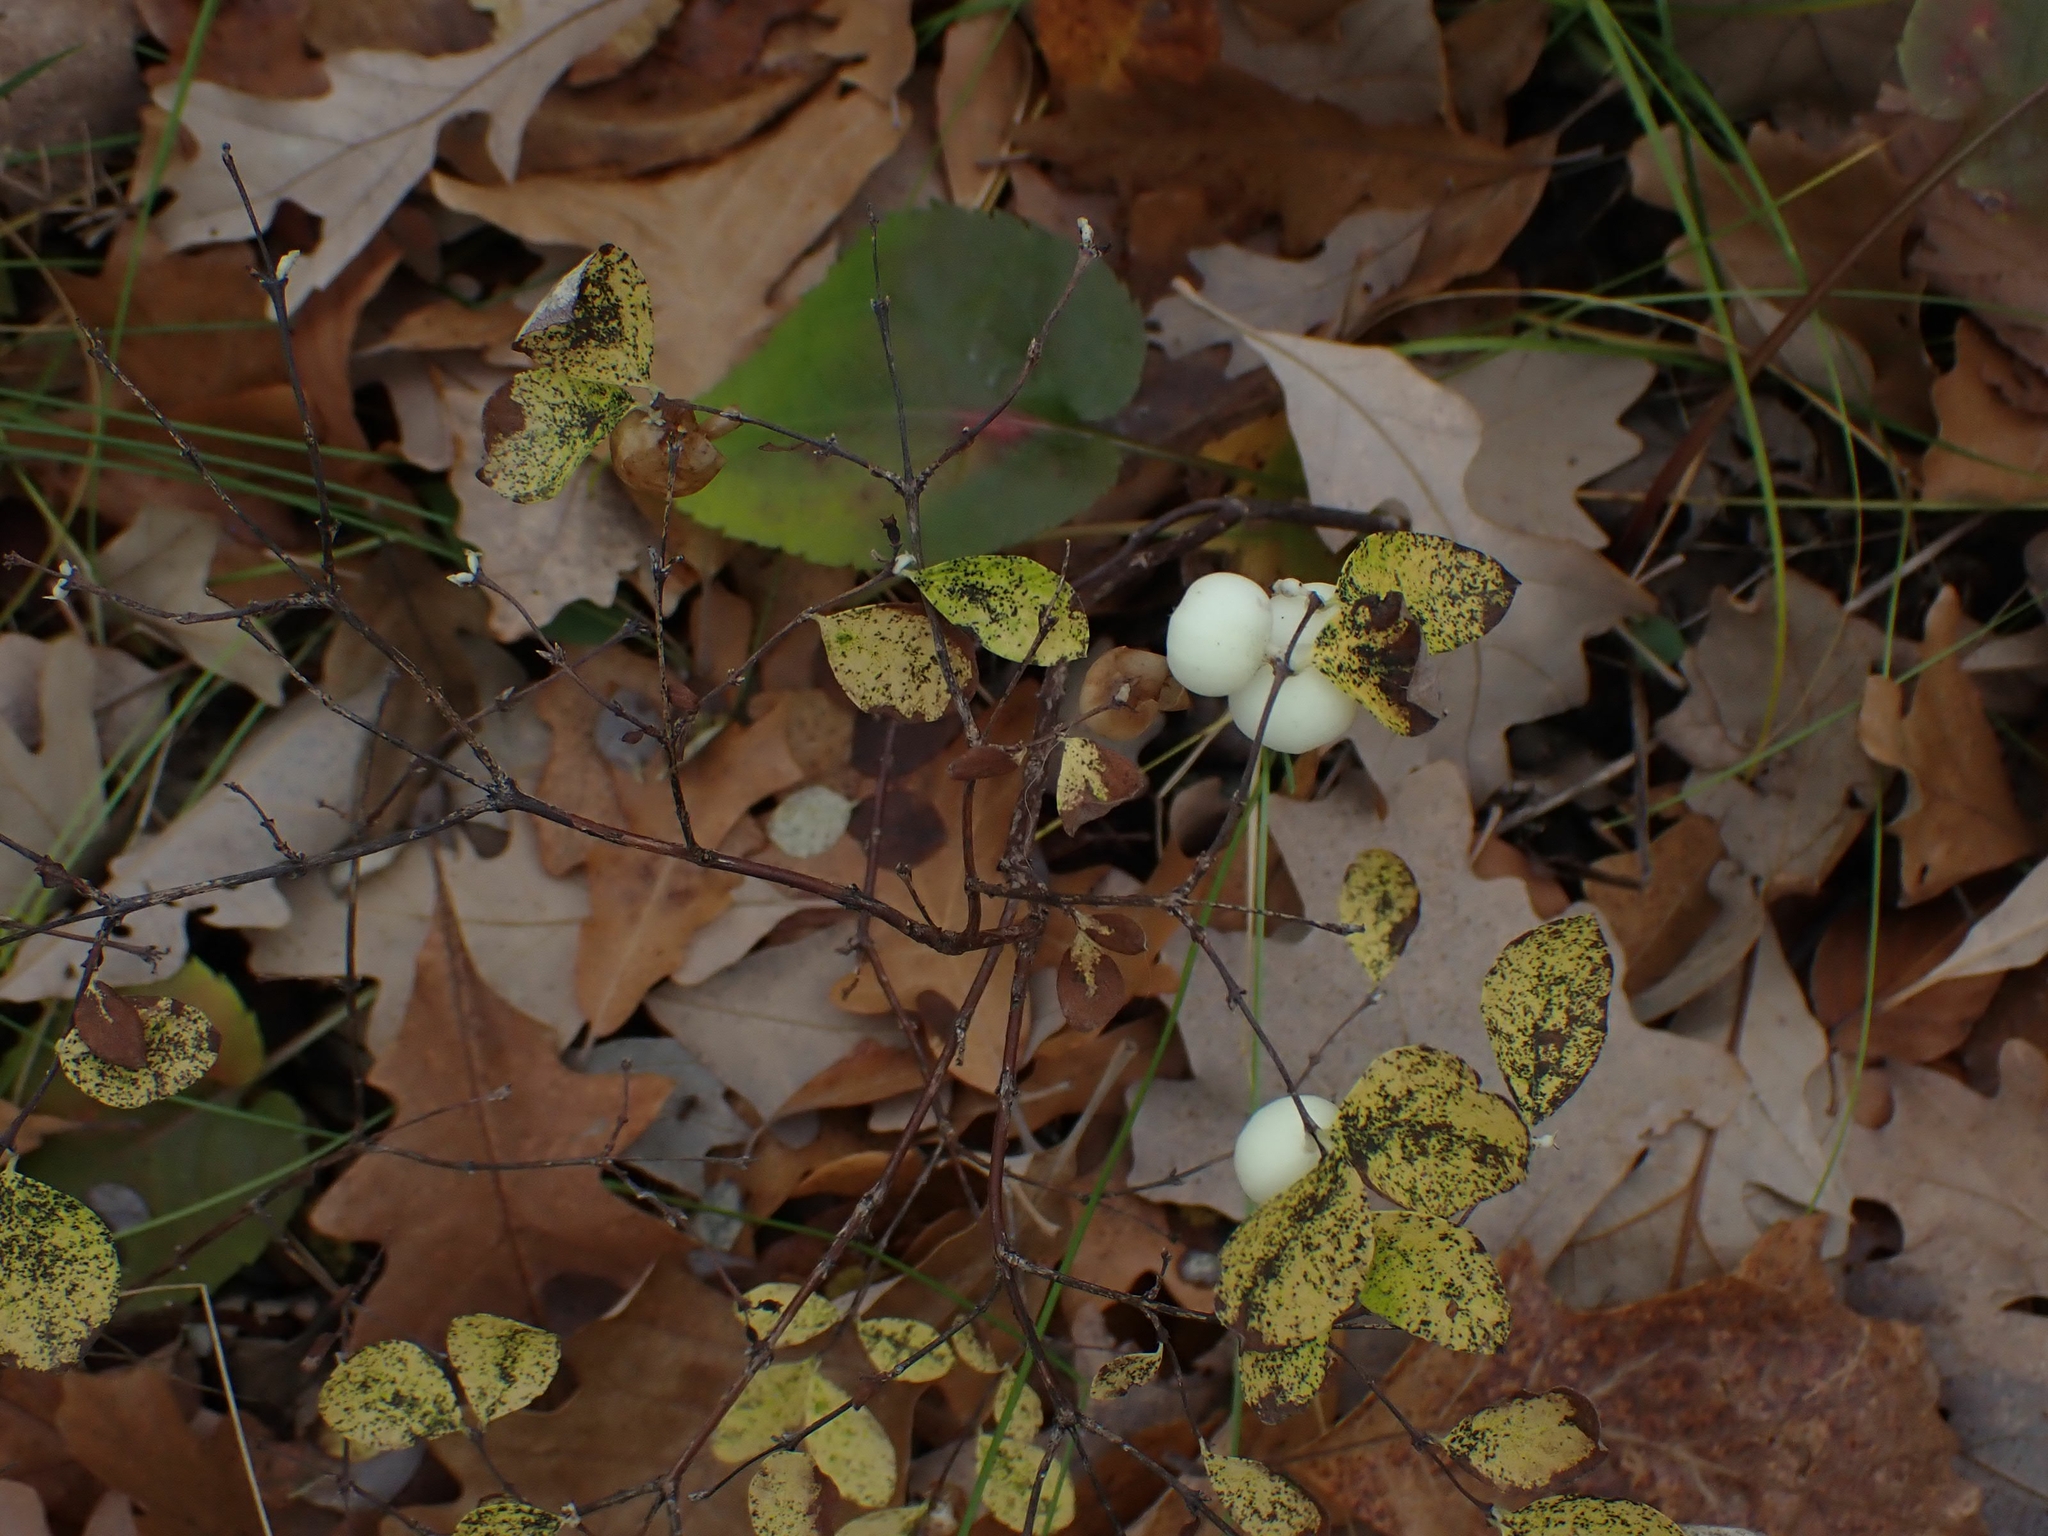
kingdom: Plantae
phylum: Tracheophyta
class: Magnoliopsida
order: Dipsacales
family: Caprifoliaceae
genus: Symphoricarpos
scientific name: Symphoricarpos albus
